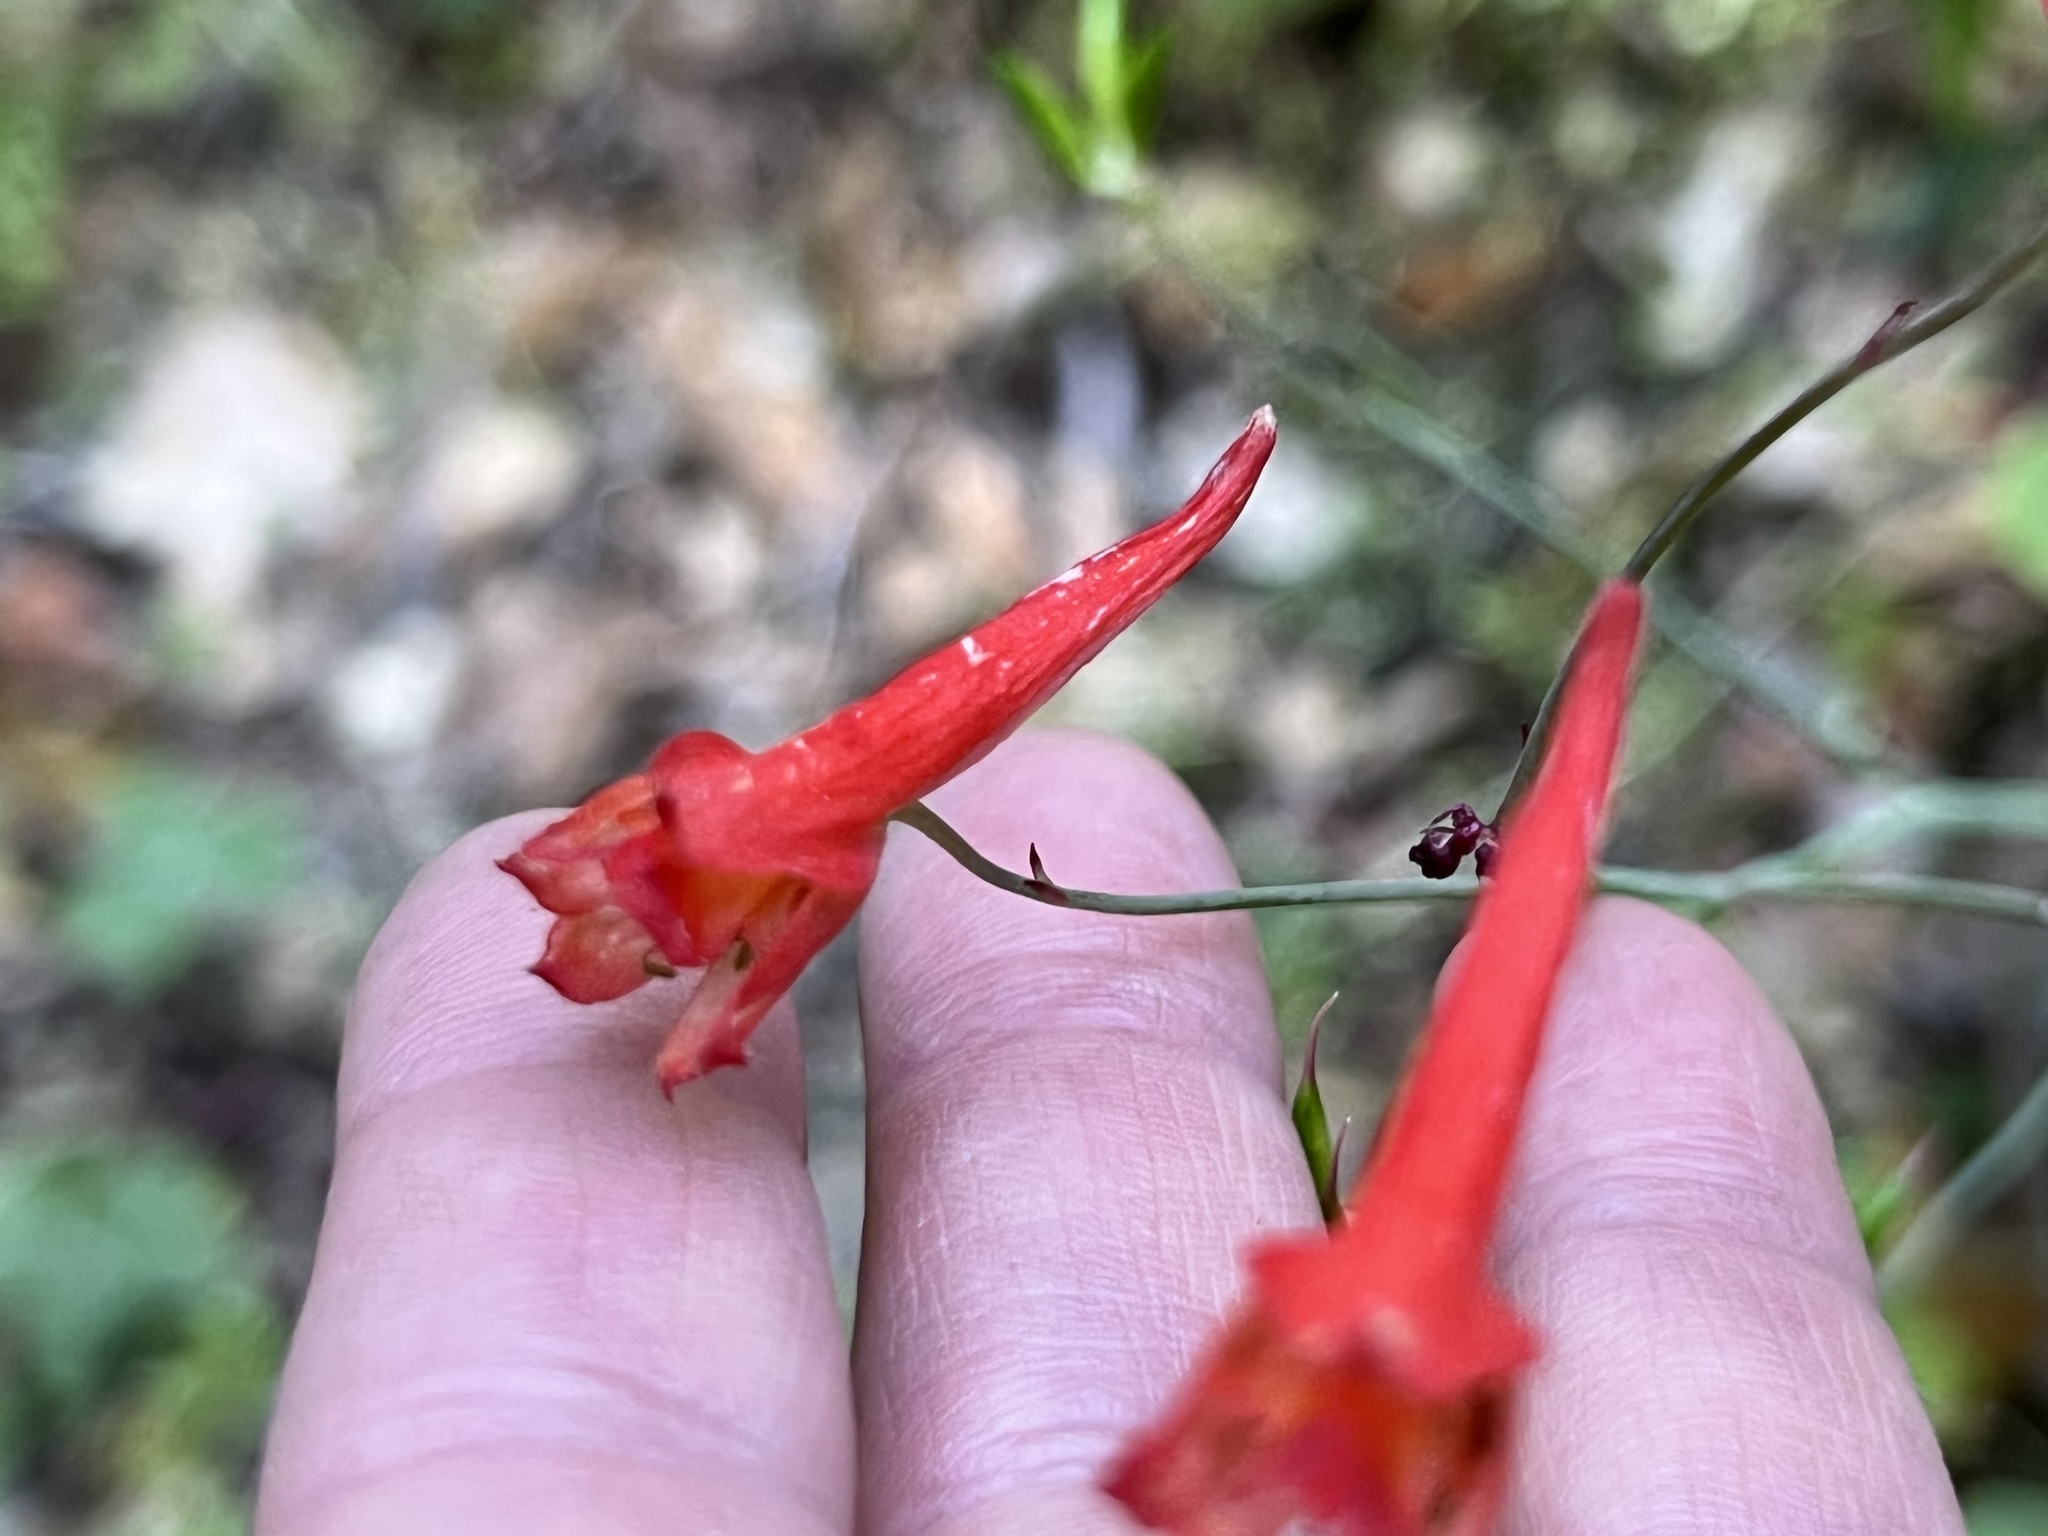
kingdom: Plantae
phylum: Tracheophyta
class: Magnoliopsida
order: Ranunculales
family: Ranunculaceae
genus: Delphinium
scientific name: Delphinium nudicaule
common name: Red larkspur
